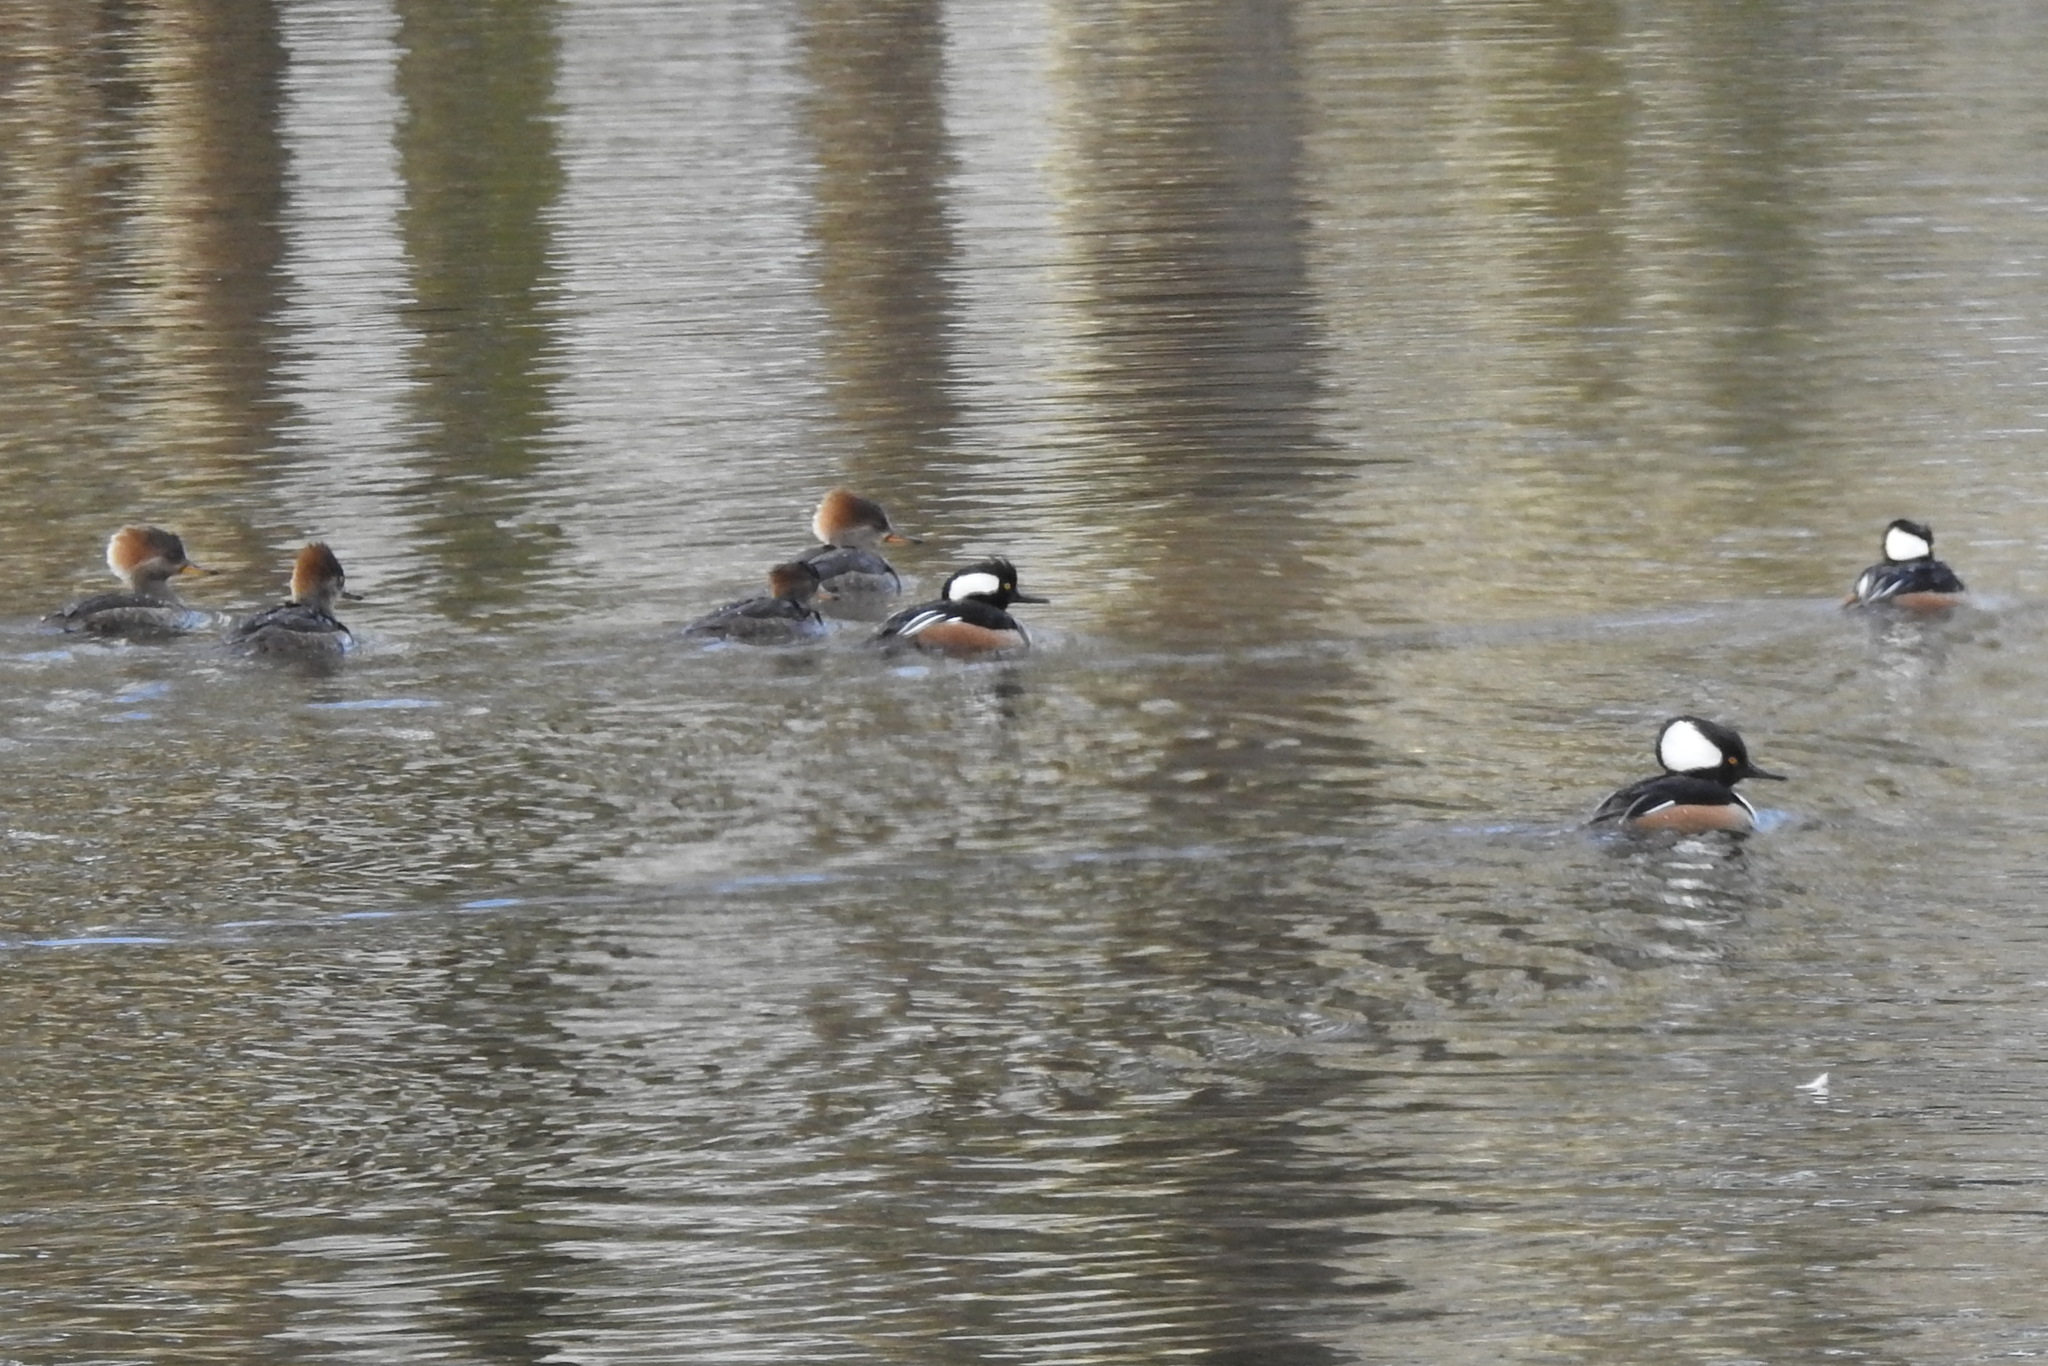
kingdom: Animalia
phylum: Chordata
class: Aves
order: Anseriformes
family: Anatidae
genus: Lophodytes
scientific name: Lophodytes cucullatus
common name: Hooded merganser
